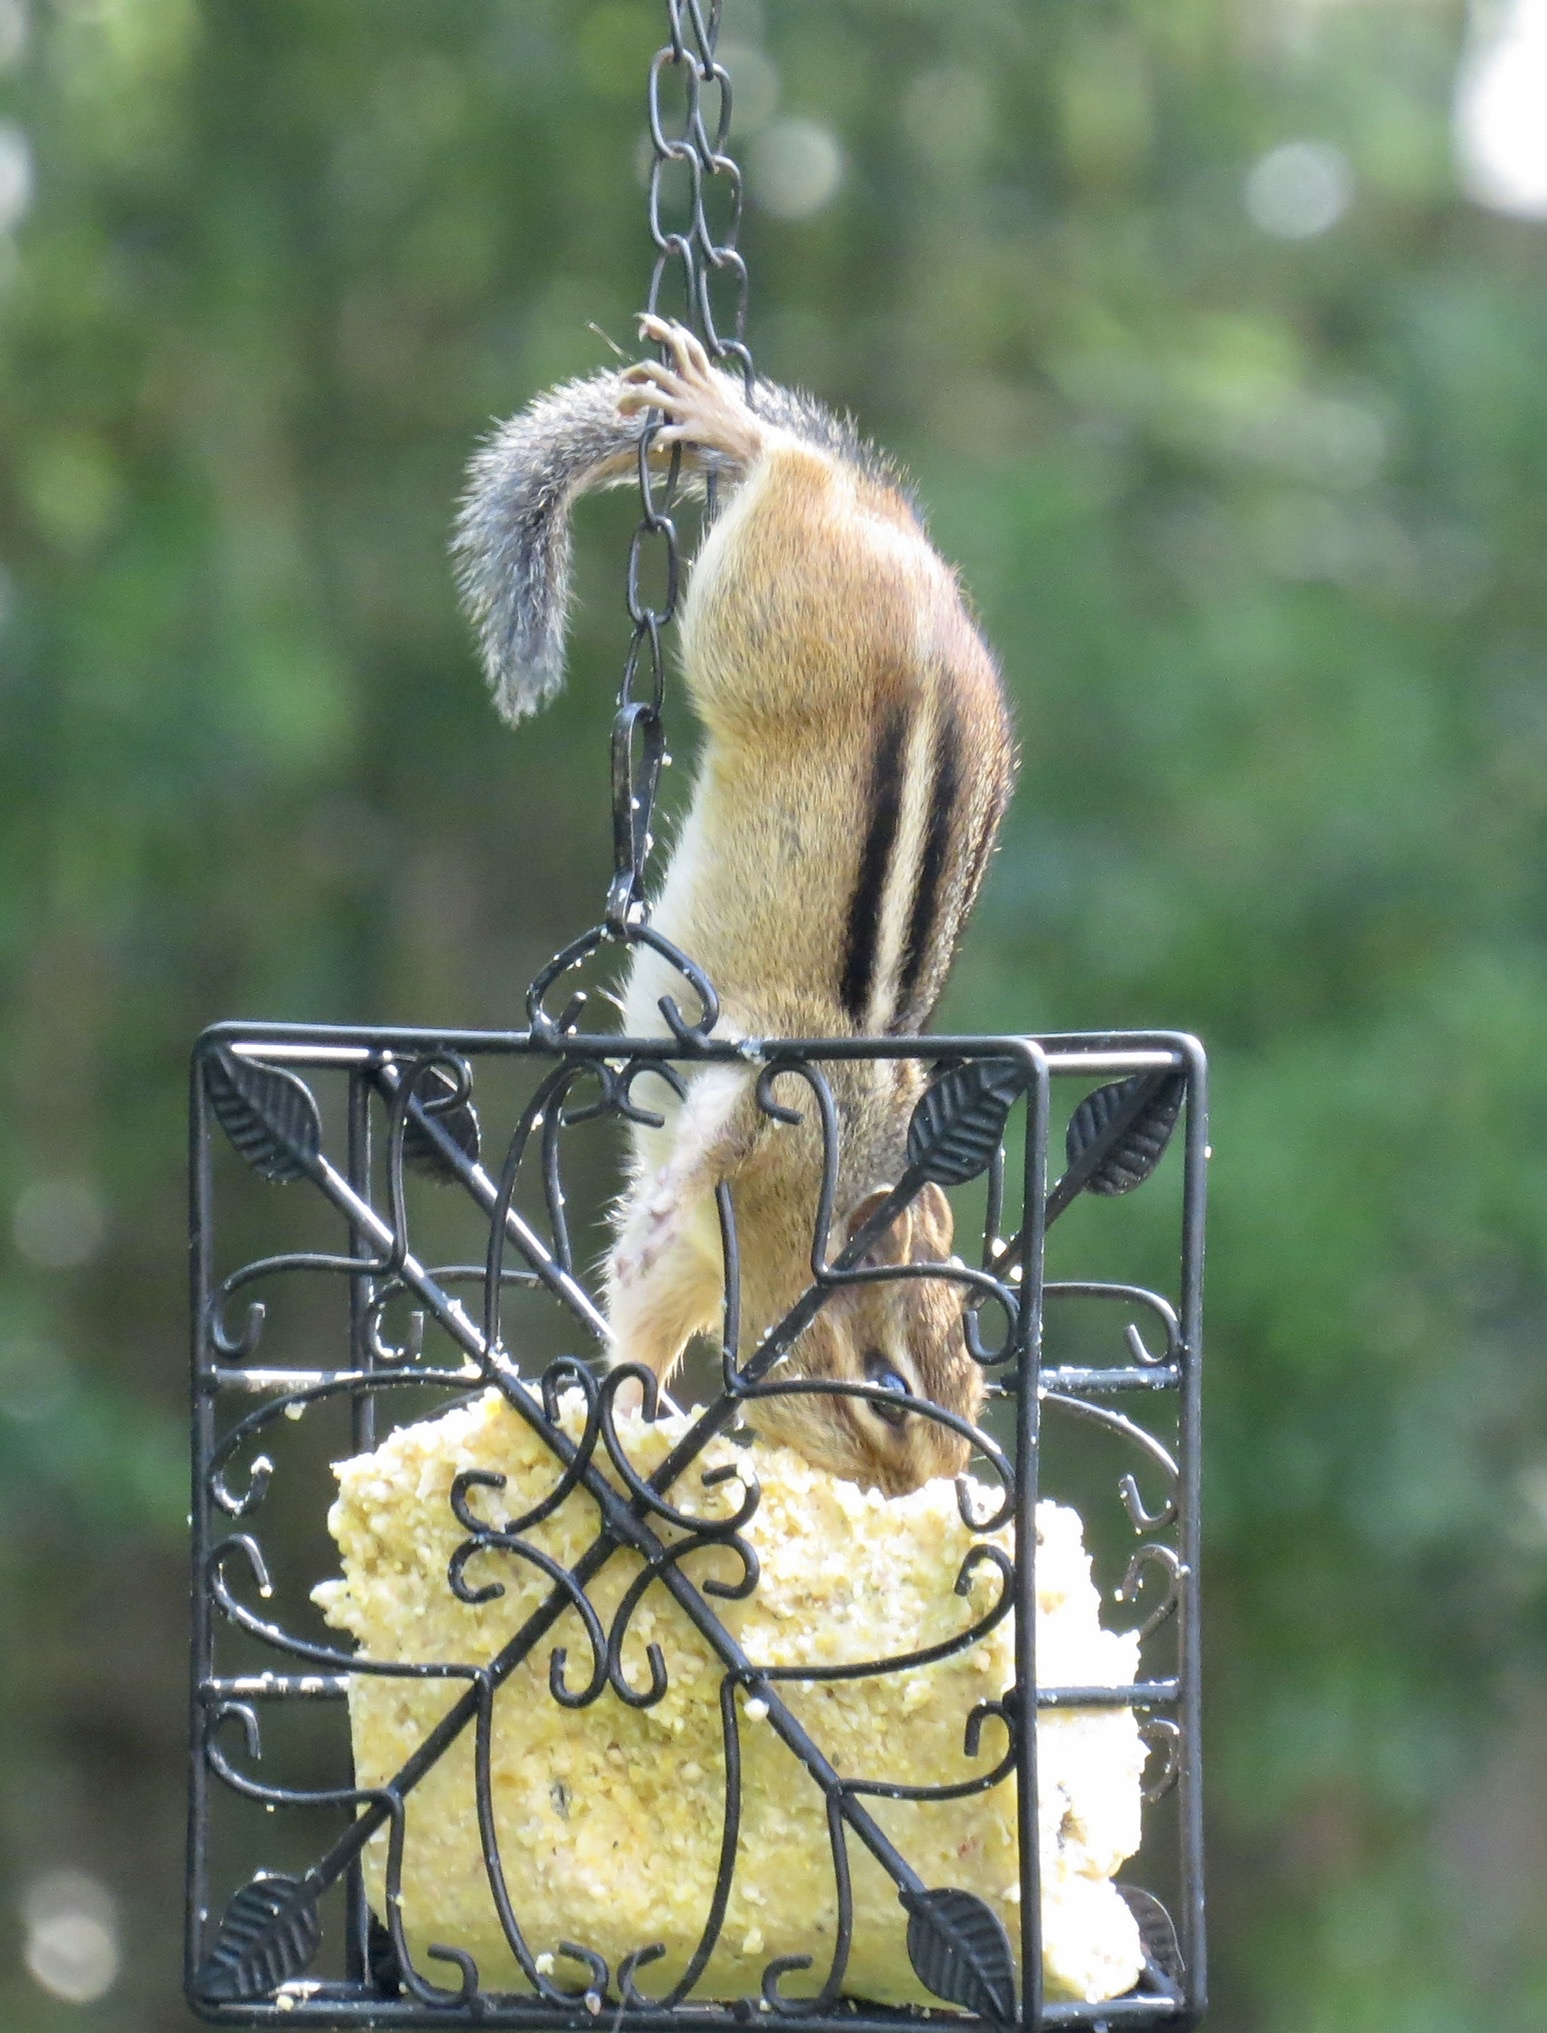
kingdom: Animalia
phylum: Chordata
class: Mammalia
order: Rodentia
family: Sciuridae
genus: Tamias
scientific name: Tamias striatus
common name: Eastern chipmunk
